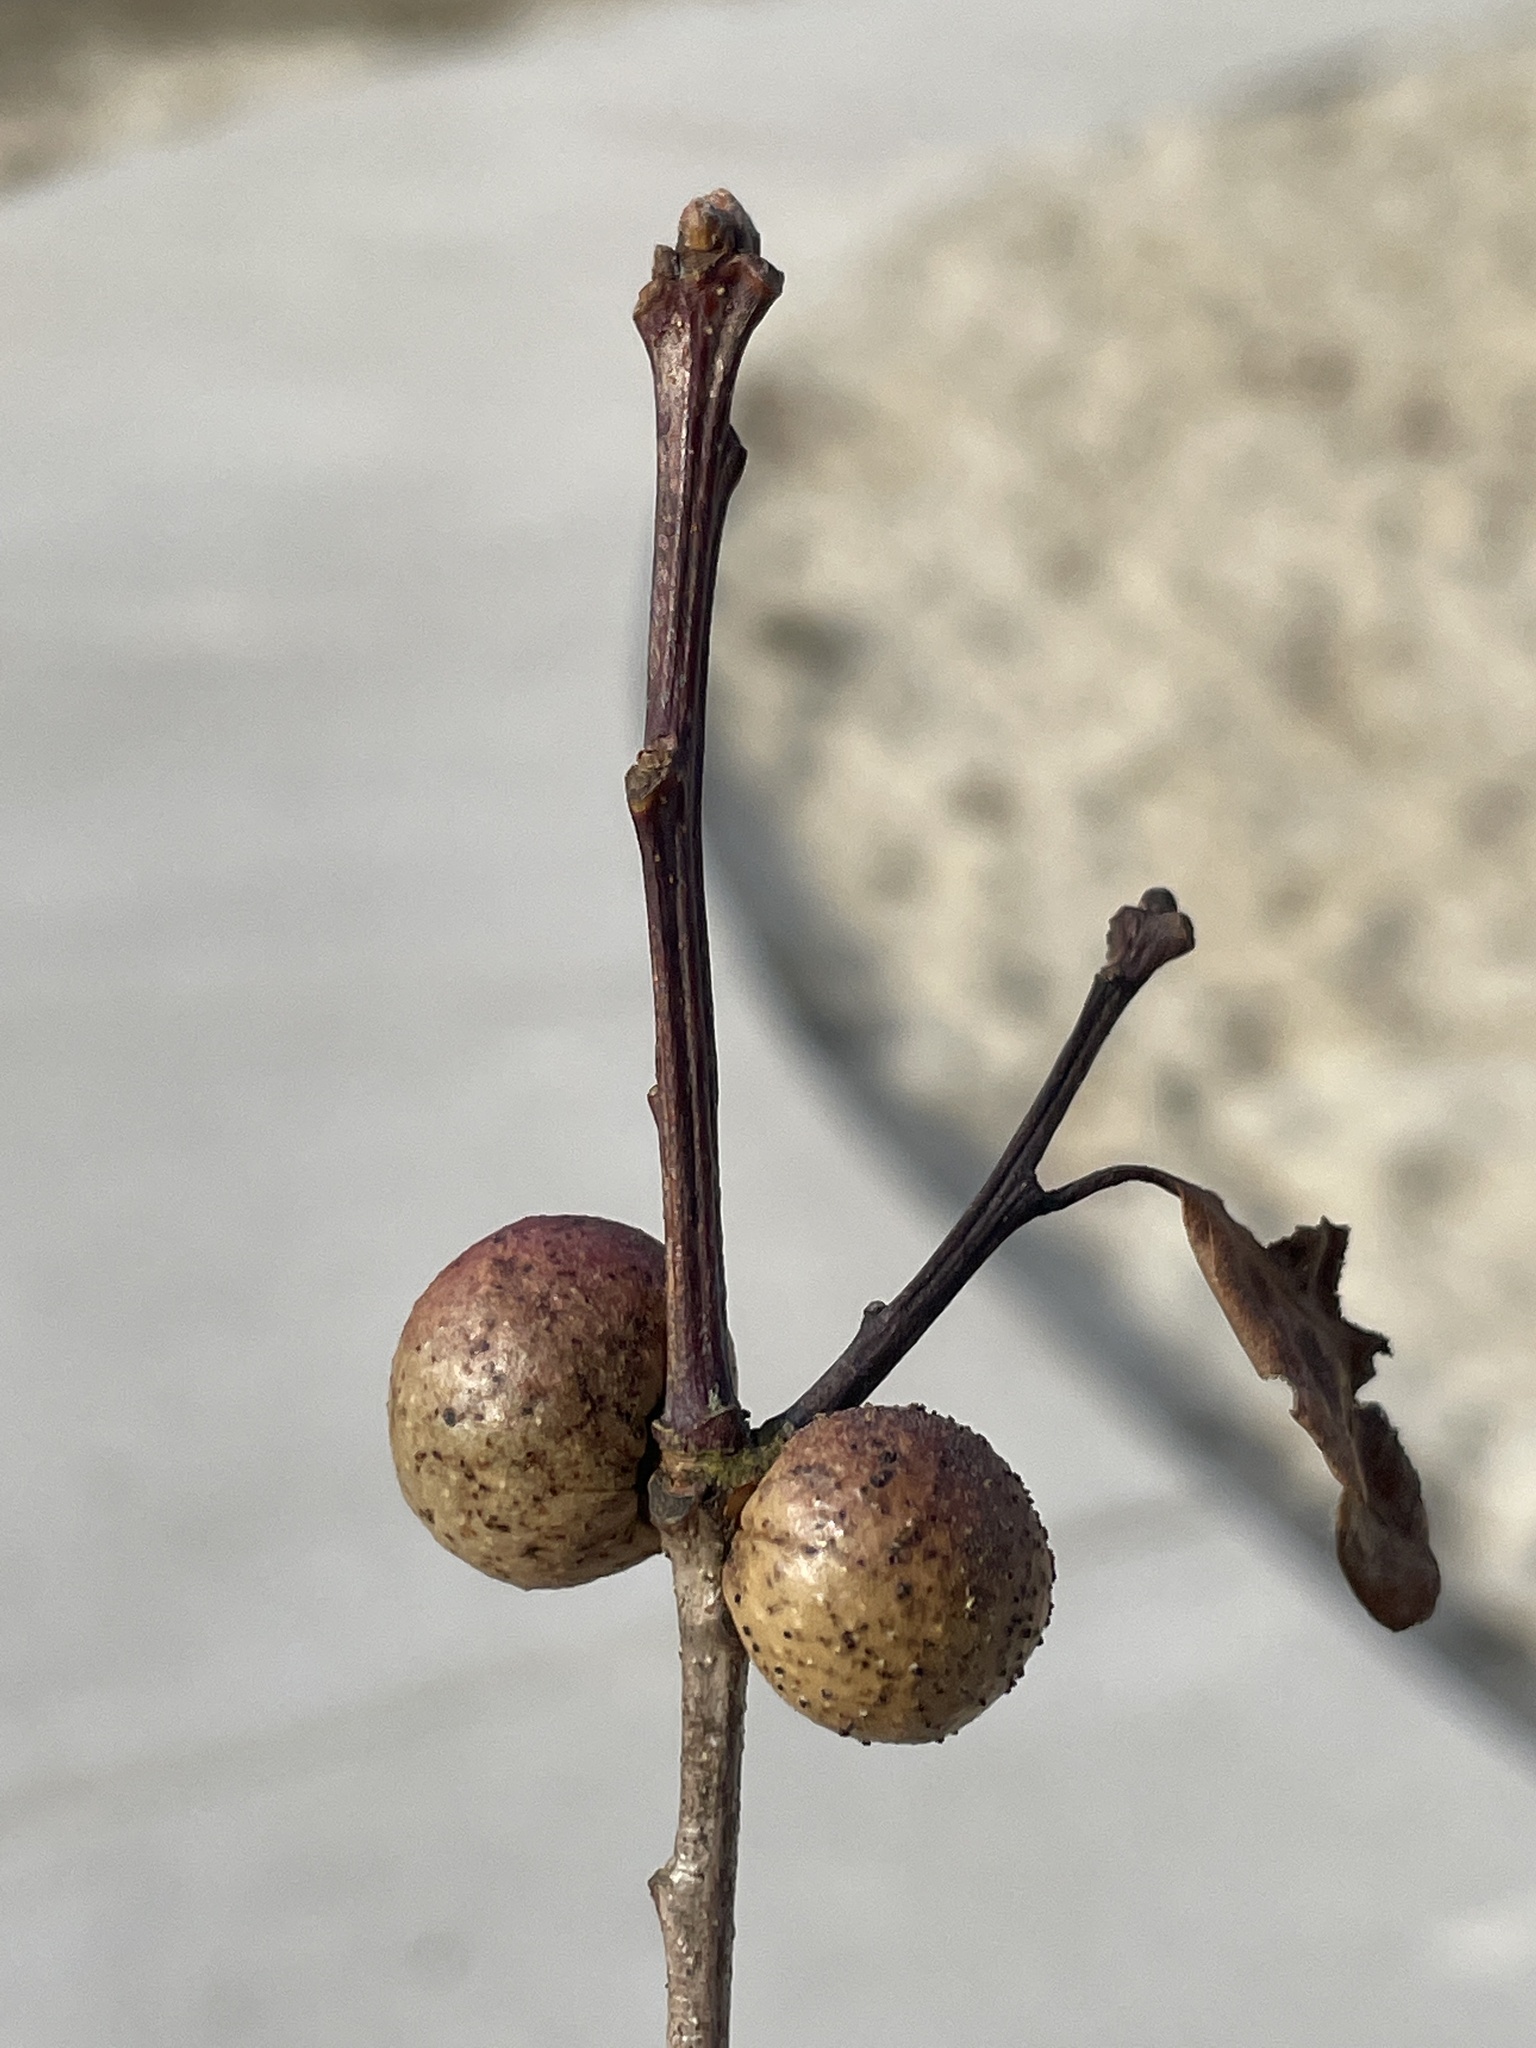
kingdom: Animalia
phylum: Arthropoda
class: Insecta
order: Hymenoptera
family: Cynipidae
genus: Disholcaspis
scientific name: Disholcaspis quercusglobulus
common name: Round bullet gall wasp
